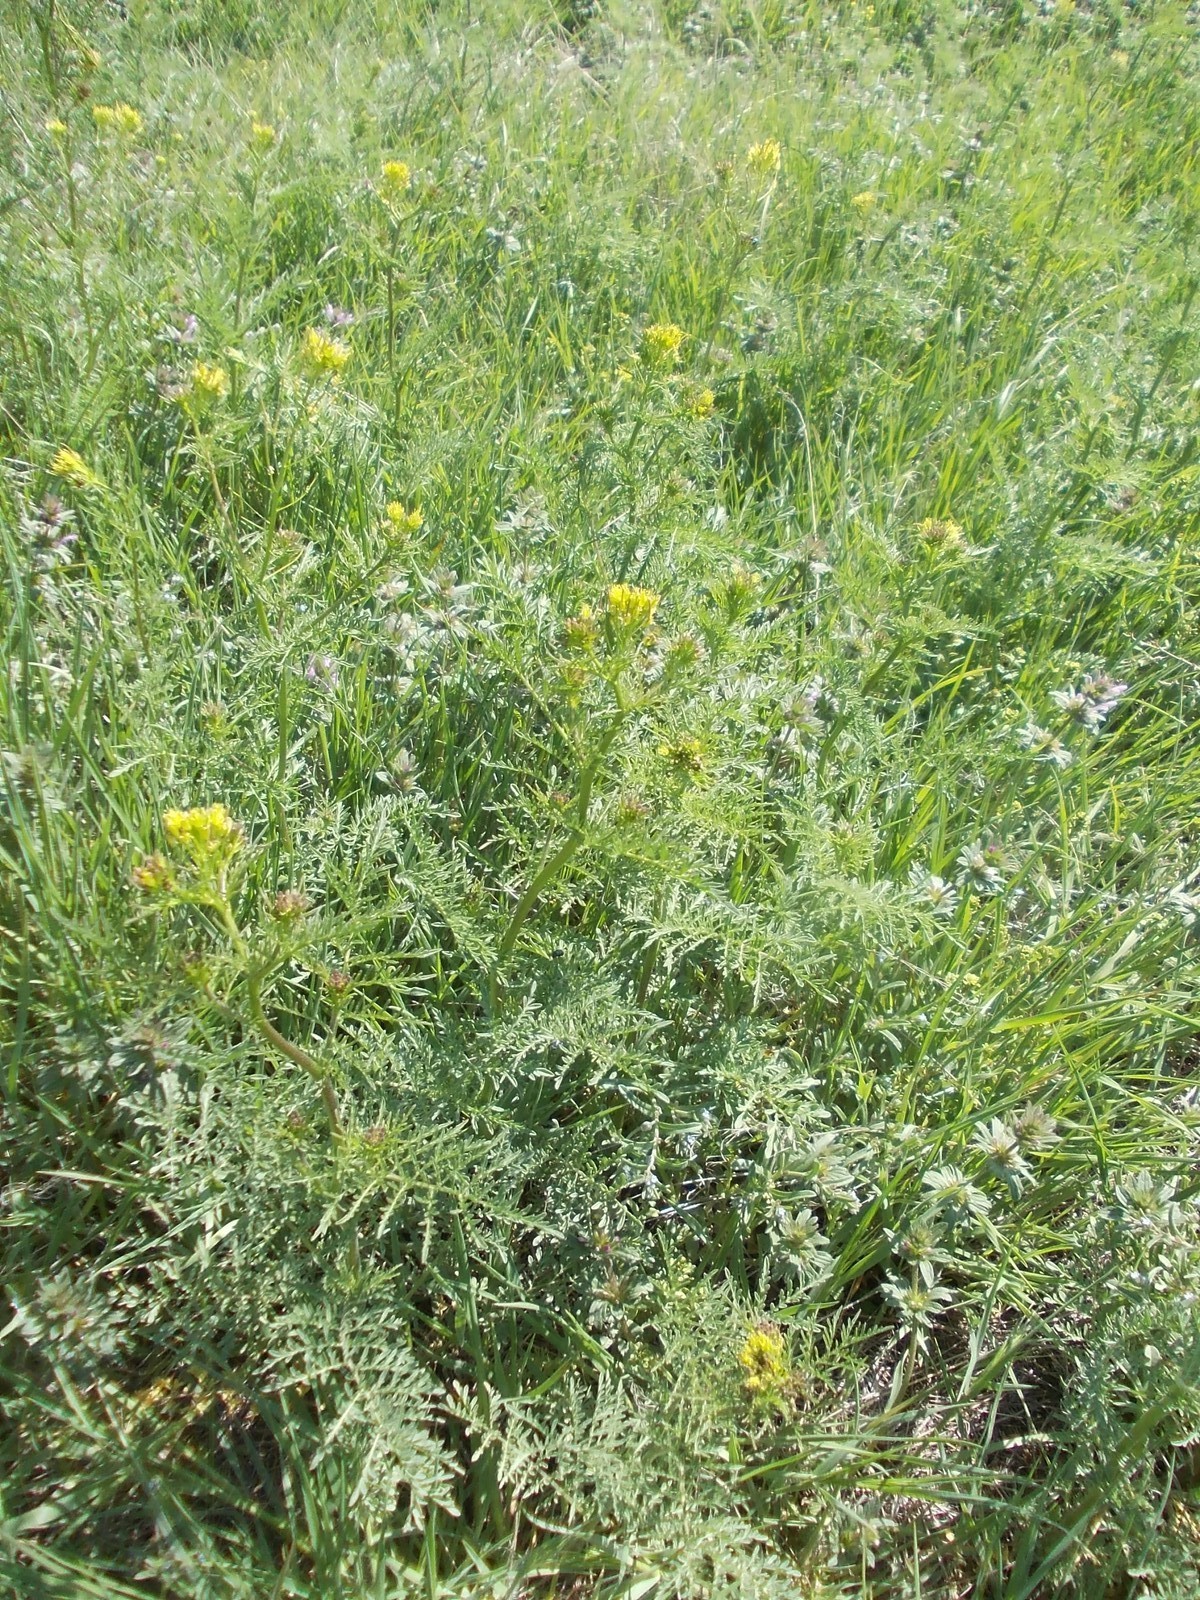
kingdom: Plantae
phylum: Tracheophyta
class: Magnoliopsida
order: Brassicales
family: Brassicaceae
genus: Descurainia
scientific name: Descurainia sophia
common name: Flixweed
